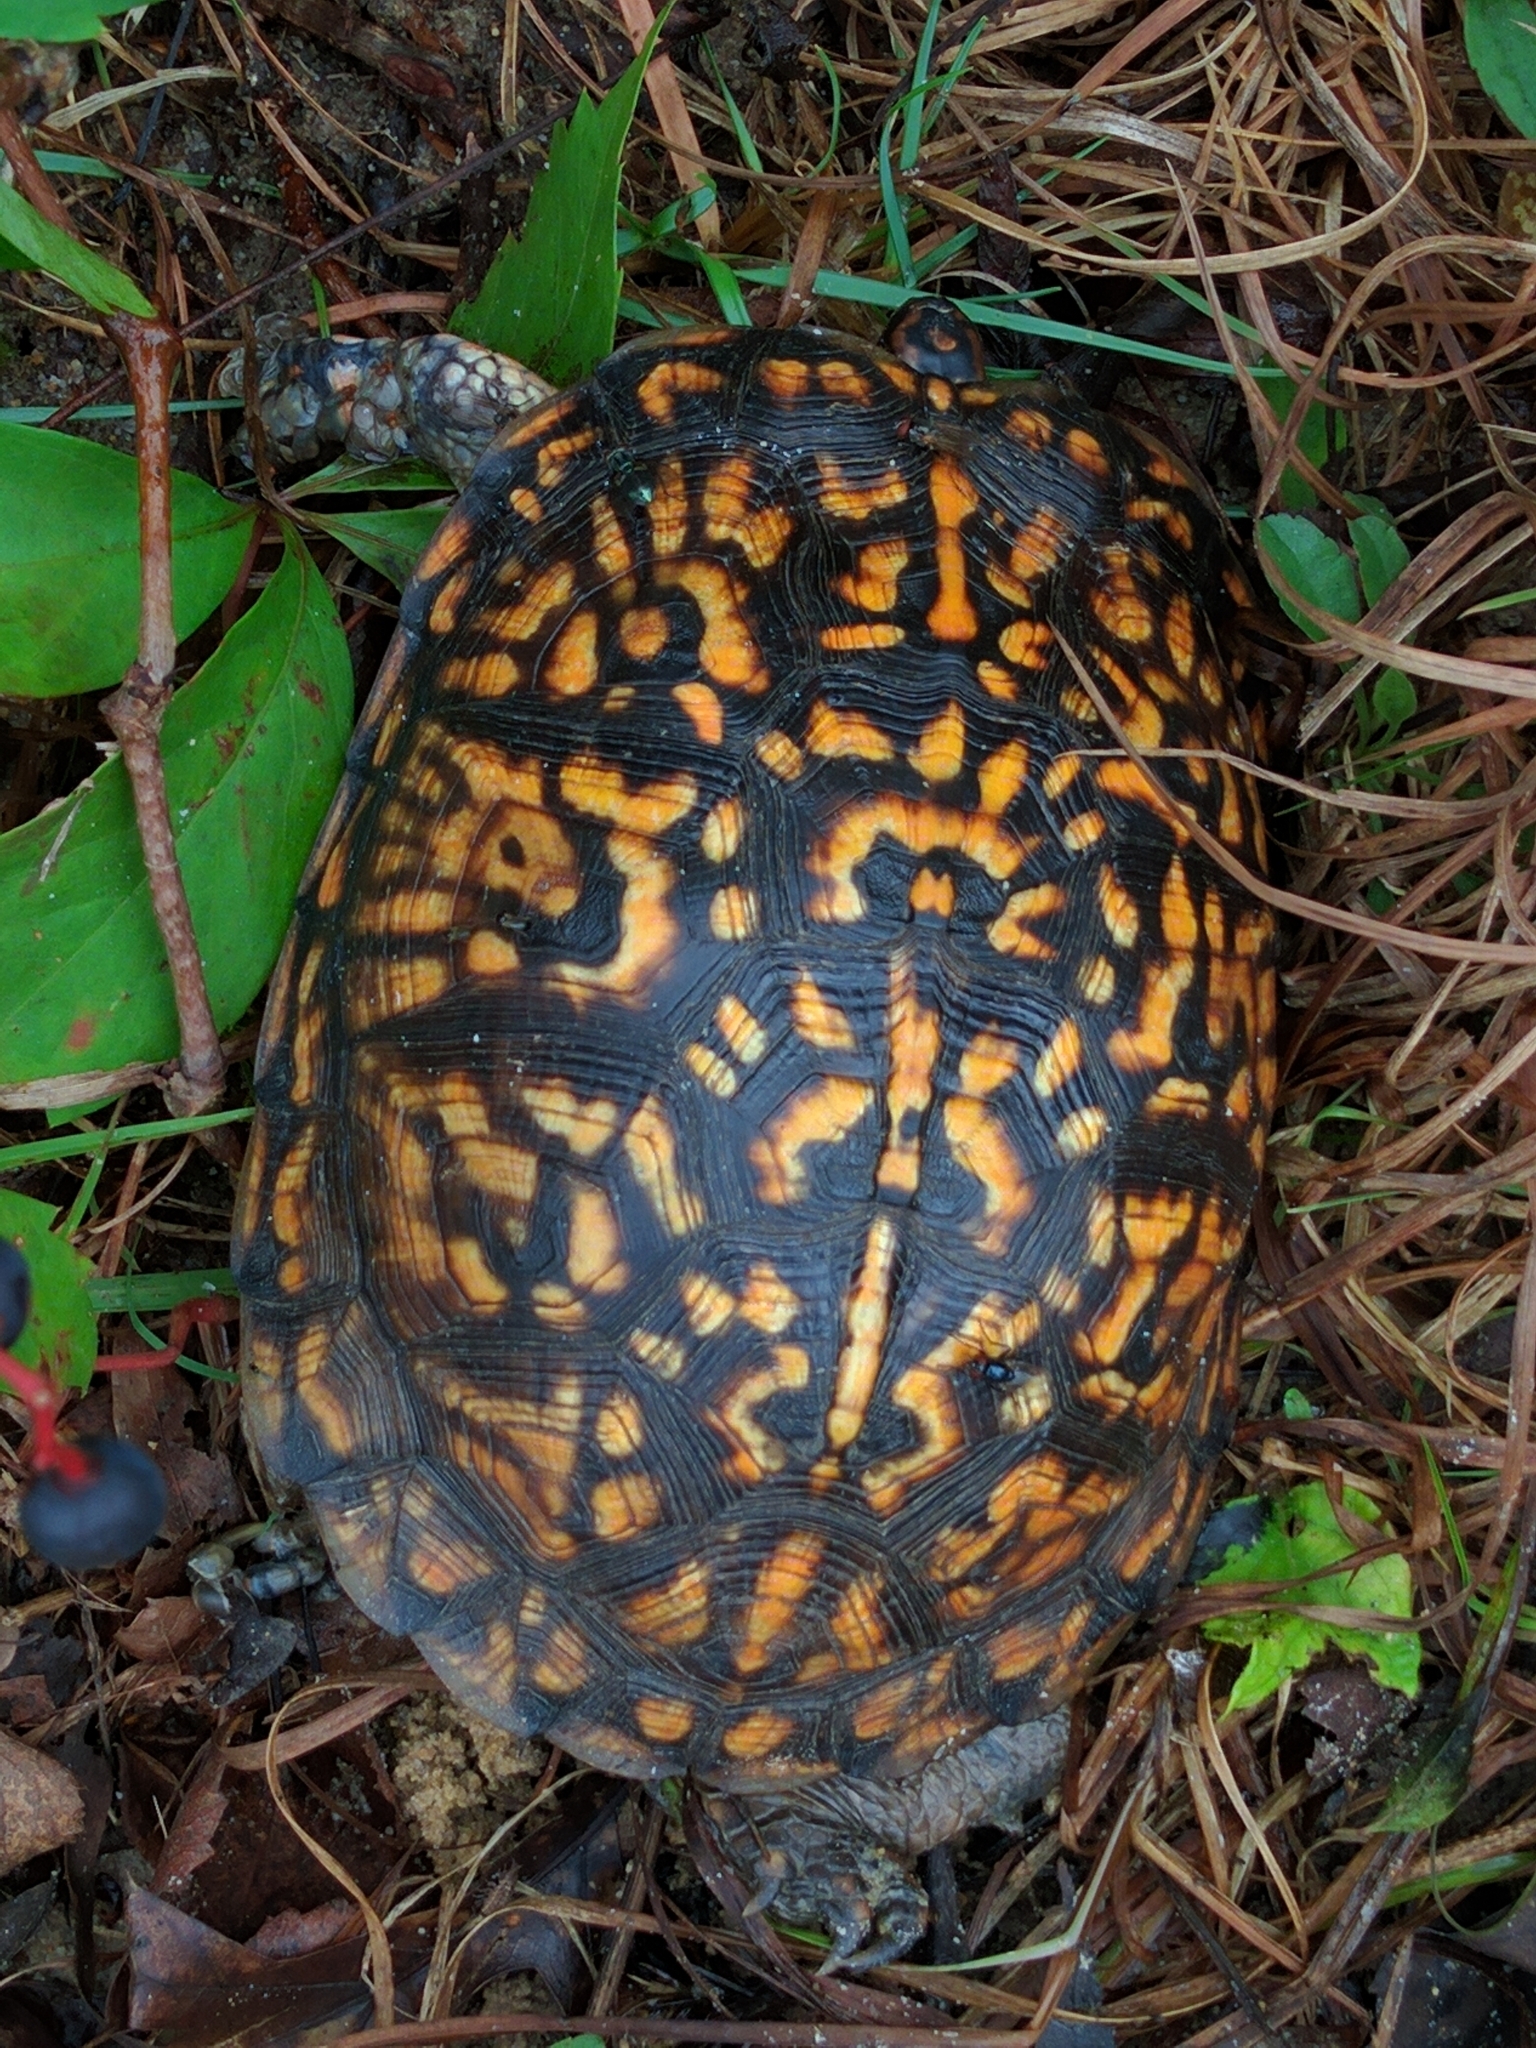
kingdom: Animalia
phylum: Chordata
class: Testudines
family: Emydidae
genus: Terrapene
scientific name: Terrapene carolina
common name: Common box turtle
